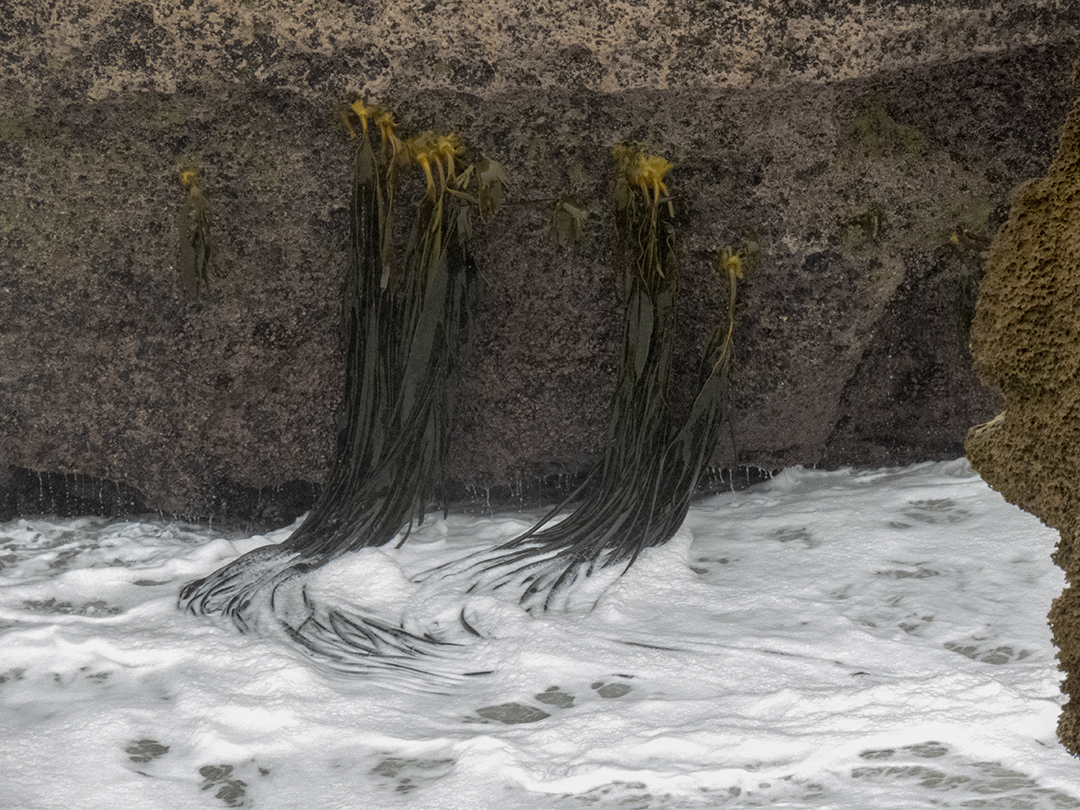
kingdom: Chromista
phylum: Ochrophyta
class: Phaeophyceae
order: Fucales
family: Durvillaeaceae
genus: Durvillaea
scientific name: Durvillaea antarctica
